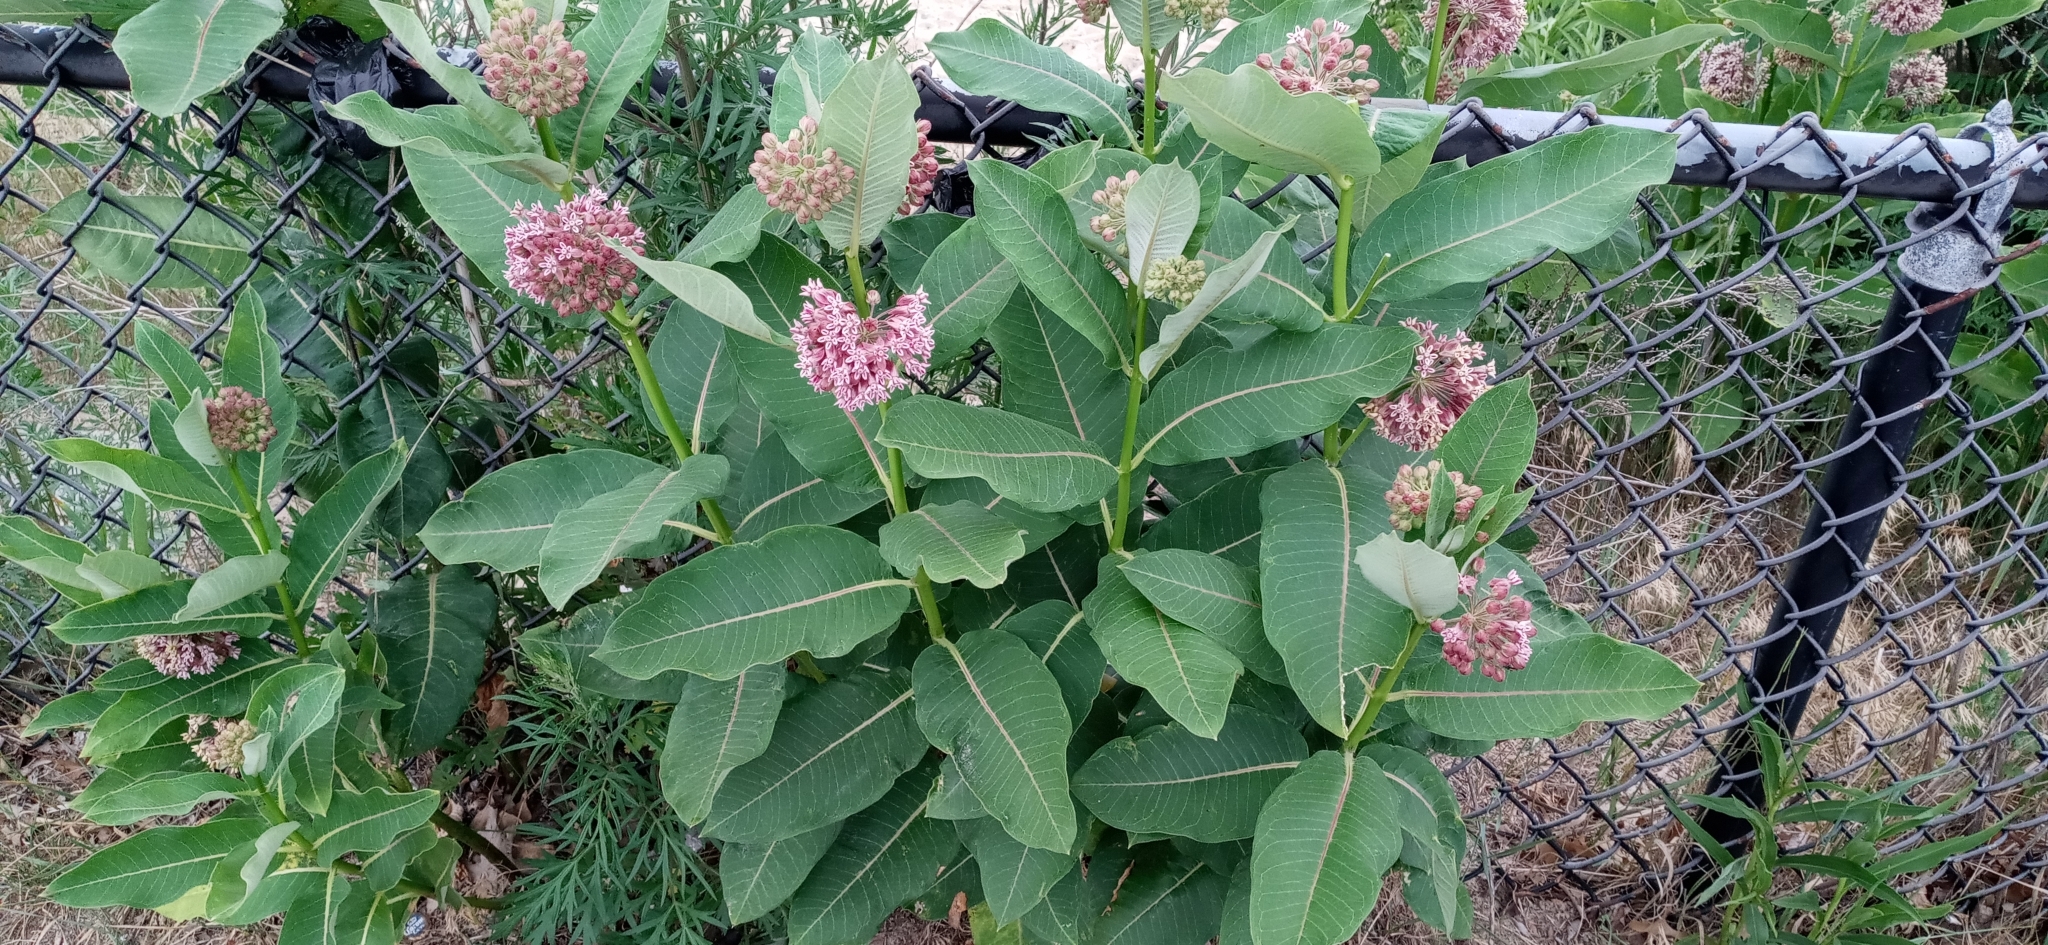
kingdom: Plantae
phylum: Tracheophyta
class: Magnoliopsida
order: Gentianales
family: Apocynaceae
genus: Asclepias
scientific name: Asclepias syriaca
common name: Common milkweed
